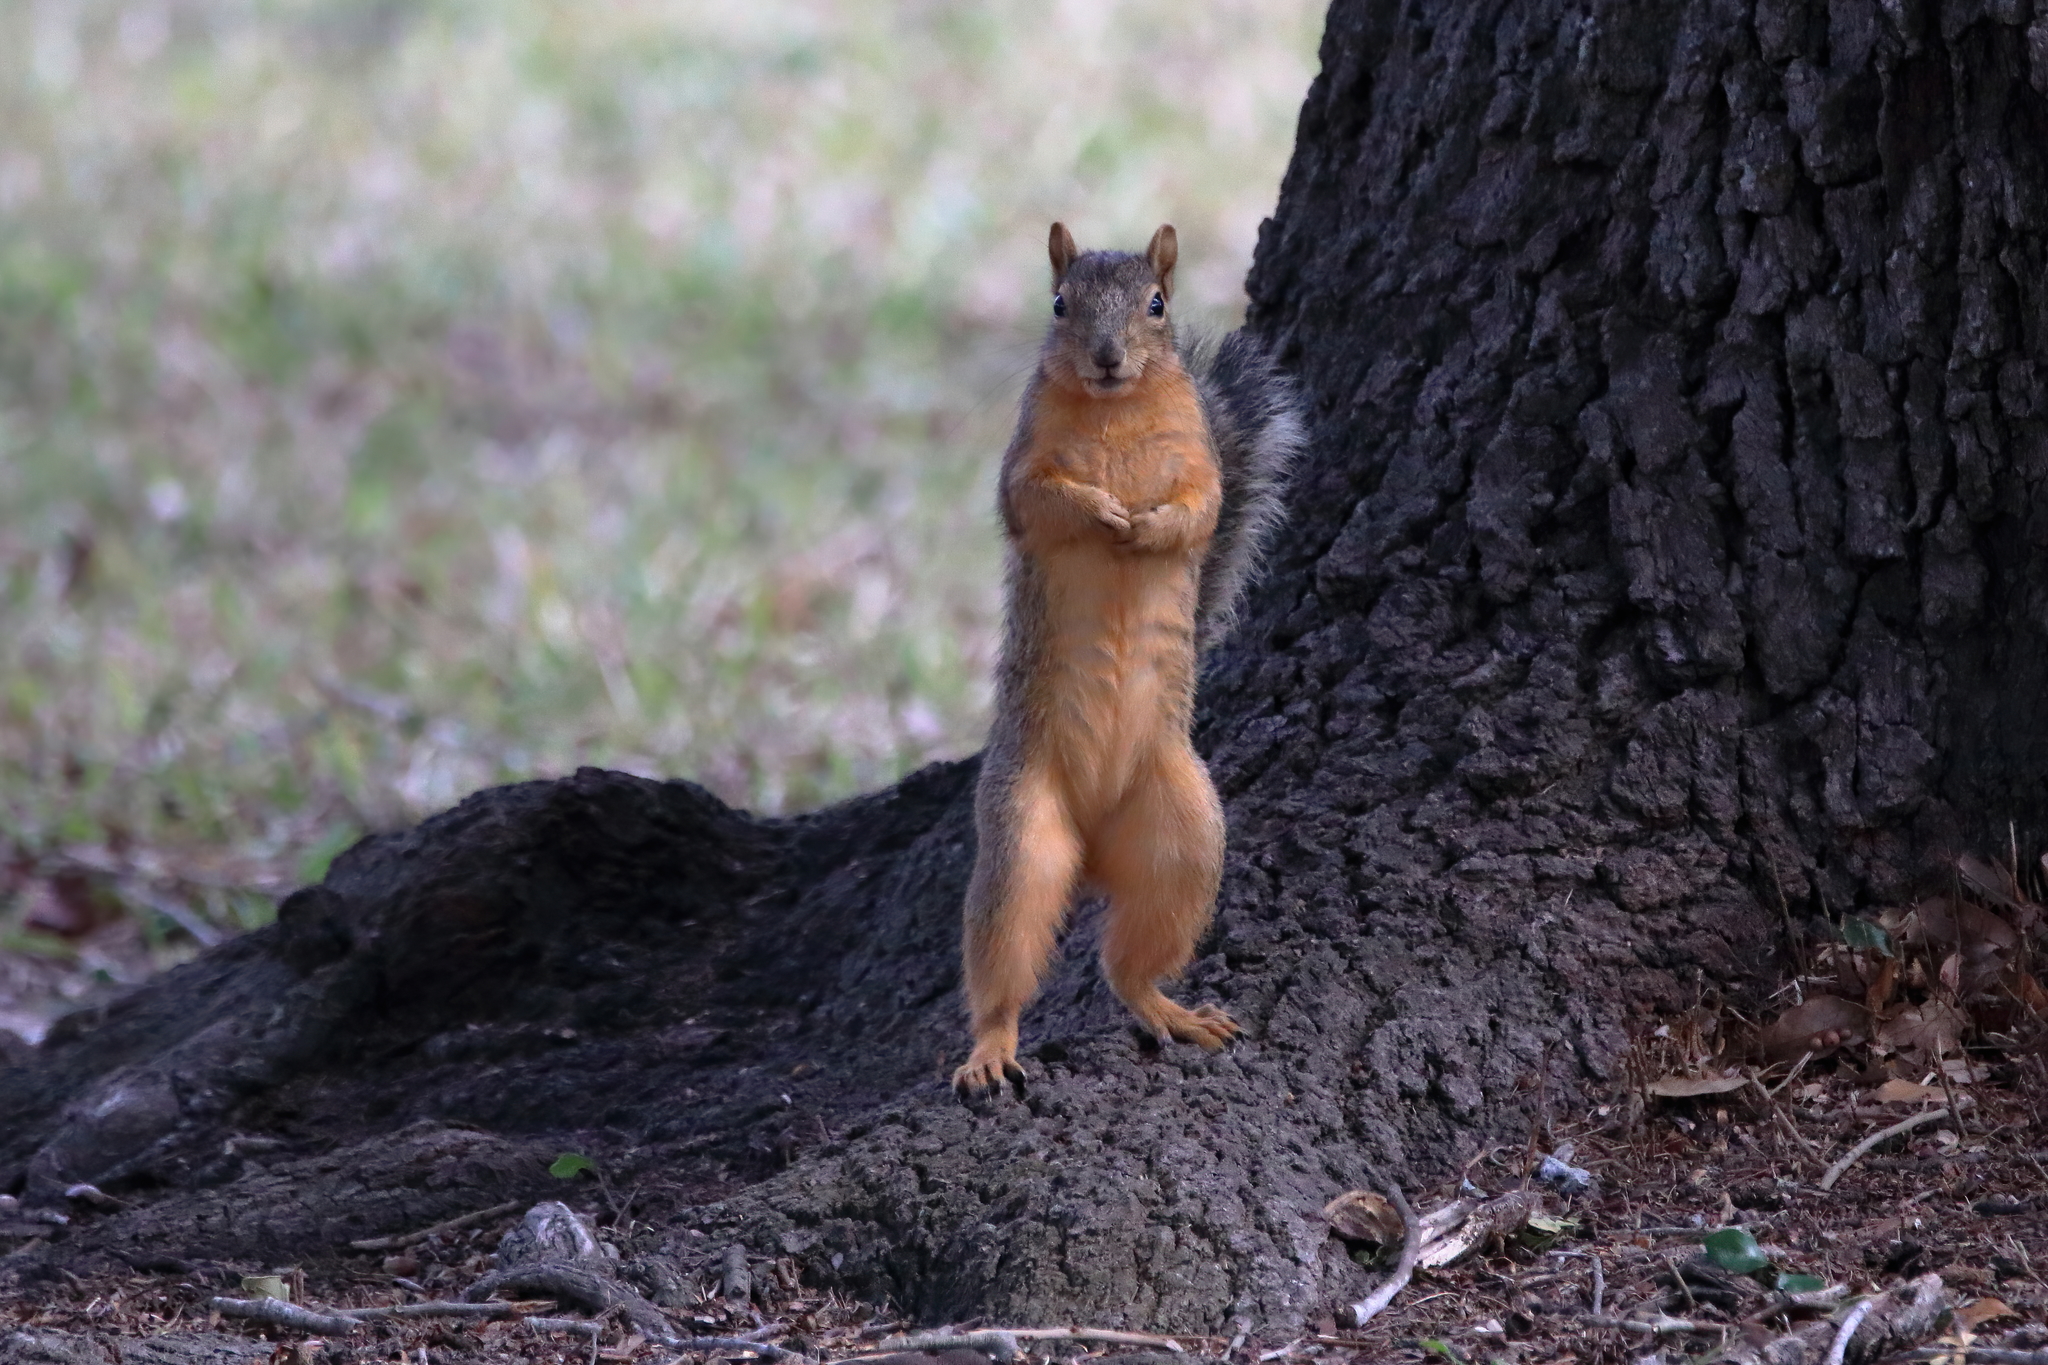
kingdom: Animalia
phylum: Chordata
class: Mammalia
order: Rodentia
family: Sciuridae
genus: Sciurus
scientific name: Sciurus niger
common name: Fox squirrel
